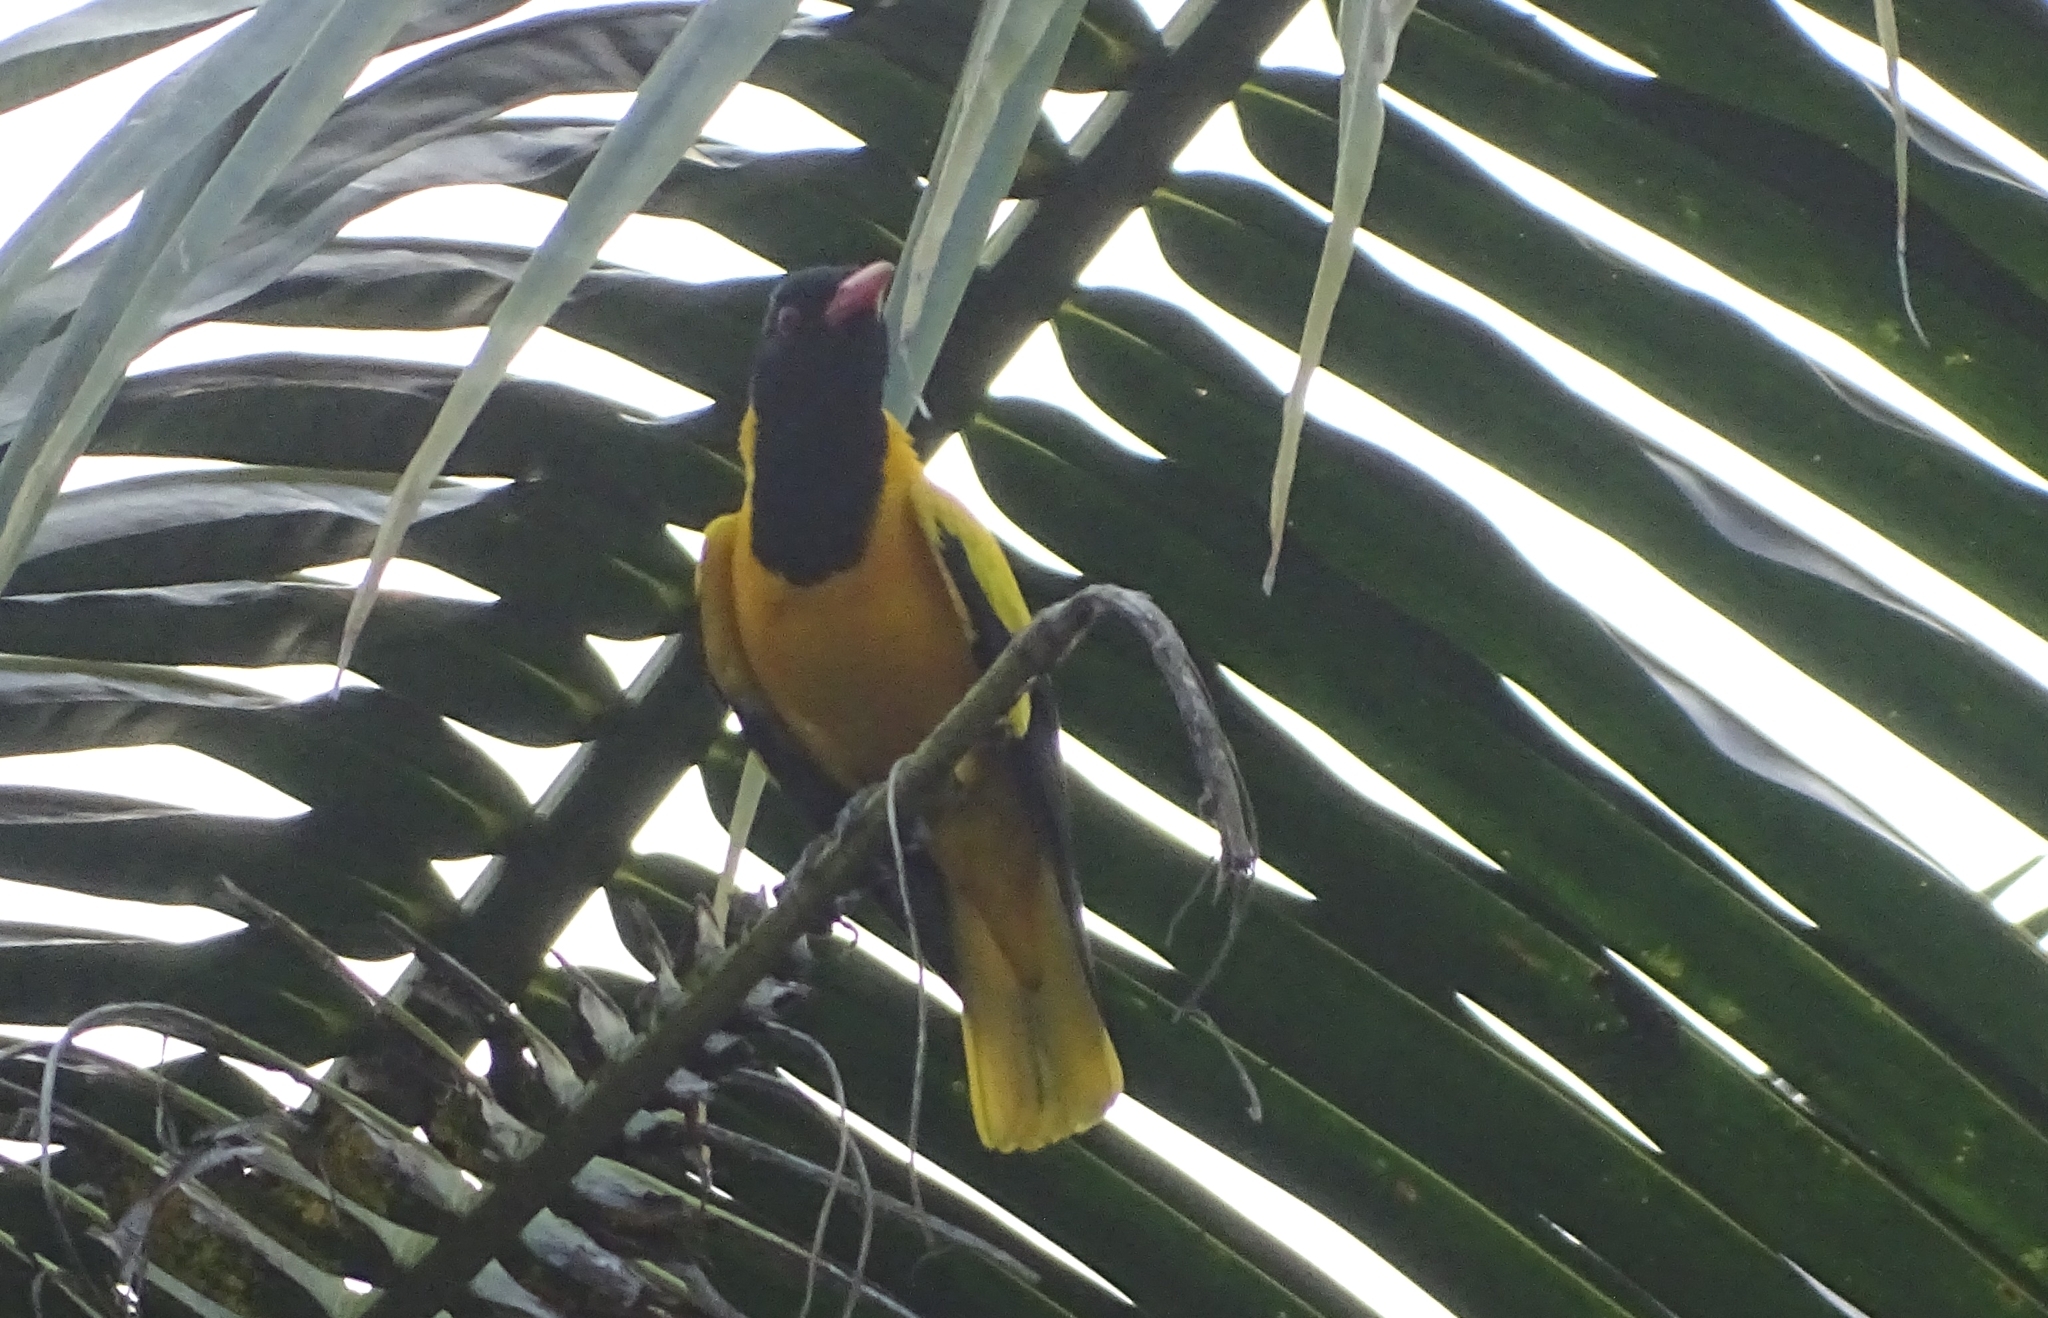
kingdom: Animalia
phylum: Chordata
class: Aves
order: Passeriformes
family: Oriolidae
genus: Oriolus
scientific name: Oriolus xanthornus
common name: Black-hooded oriole
